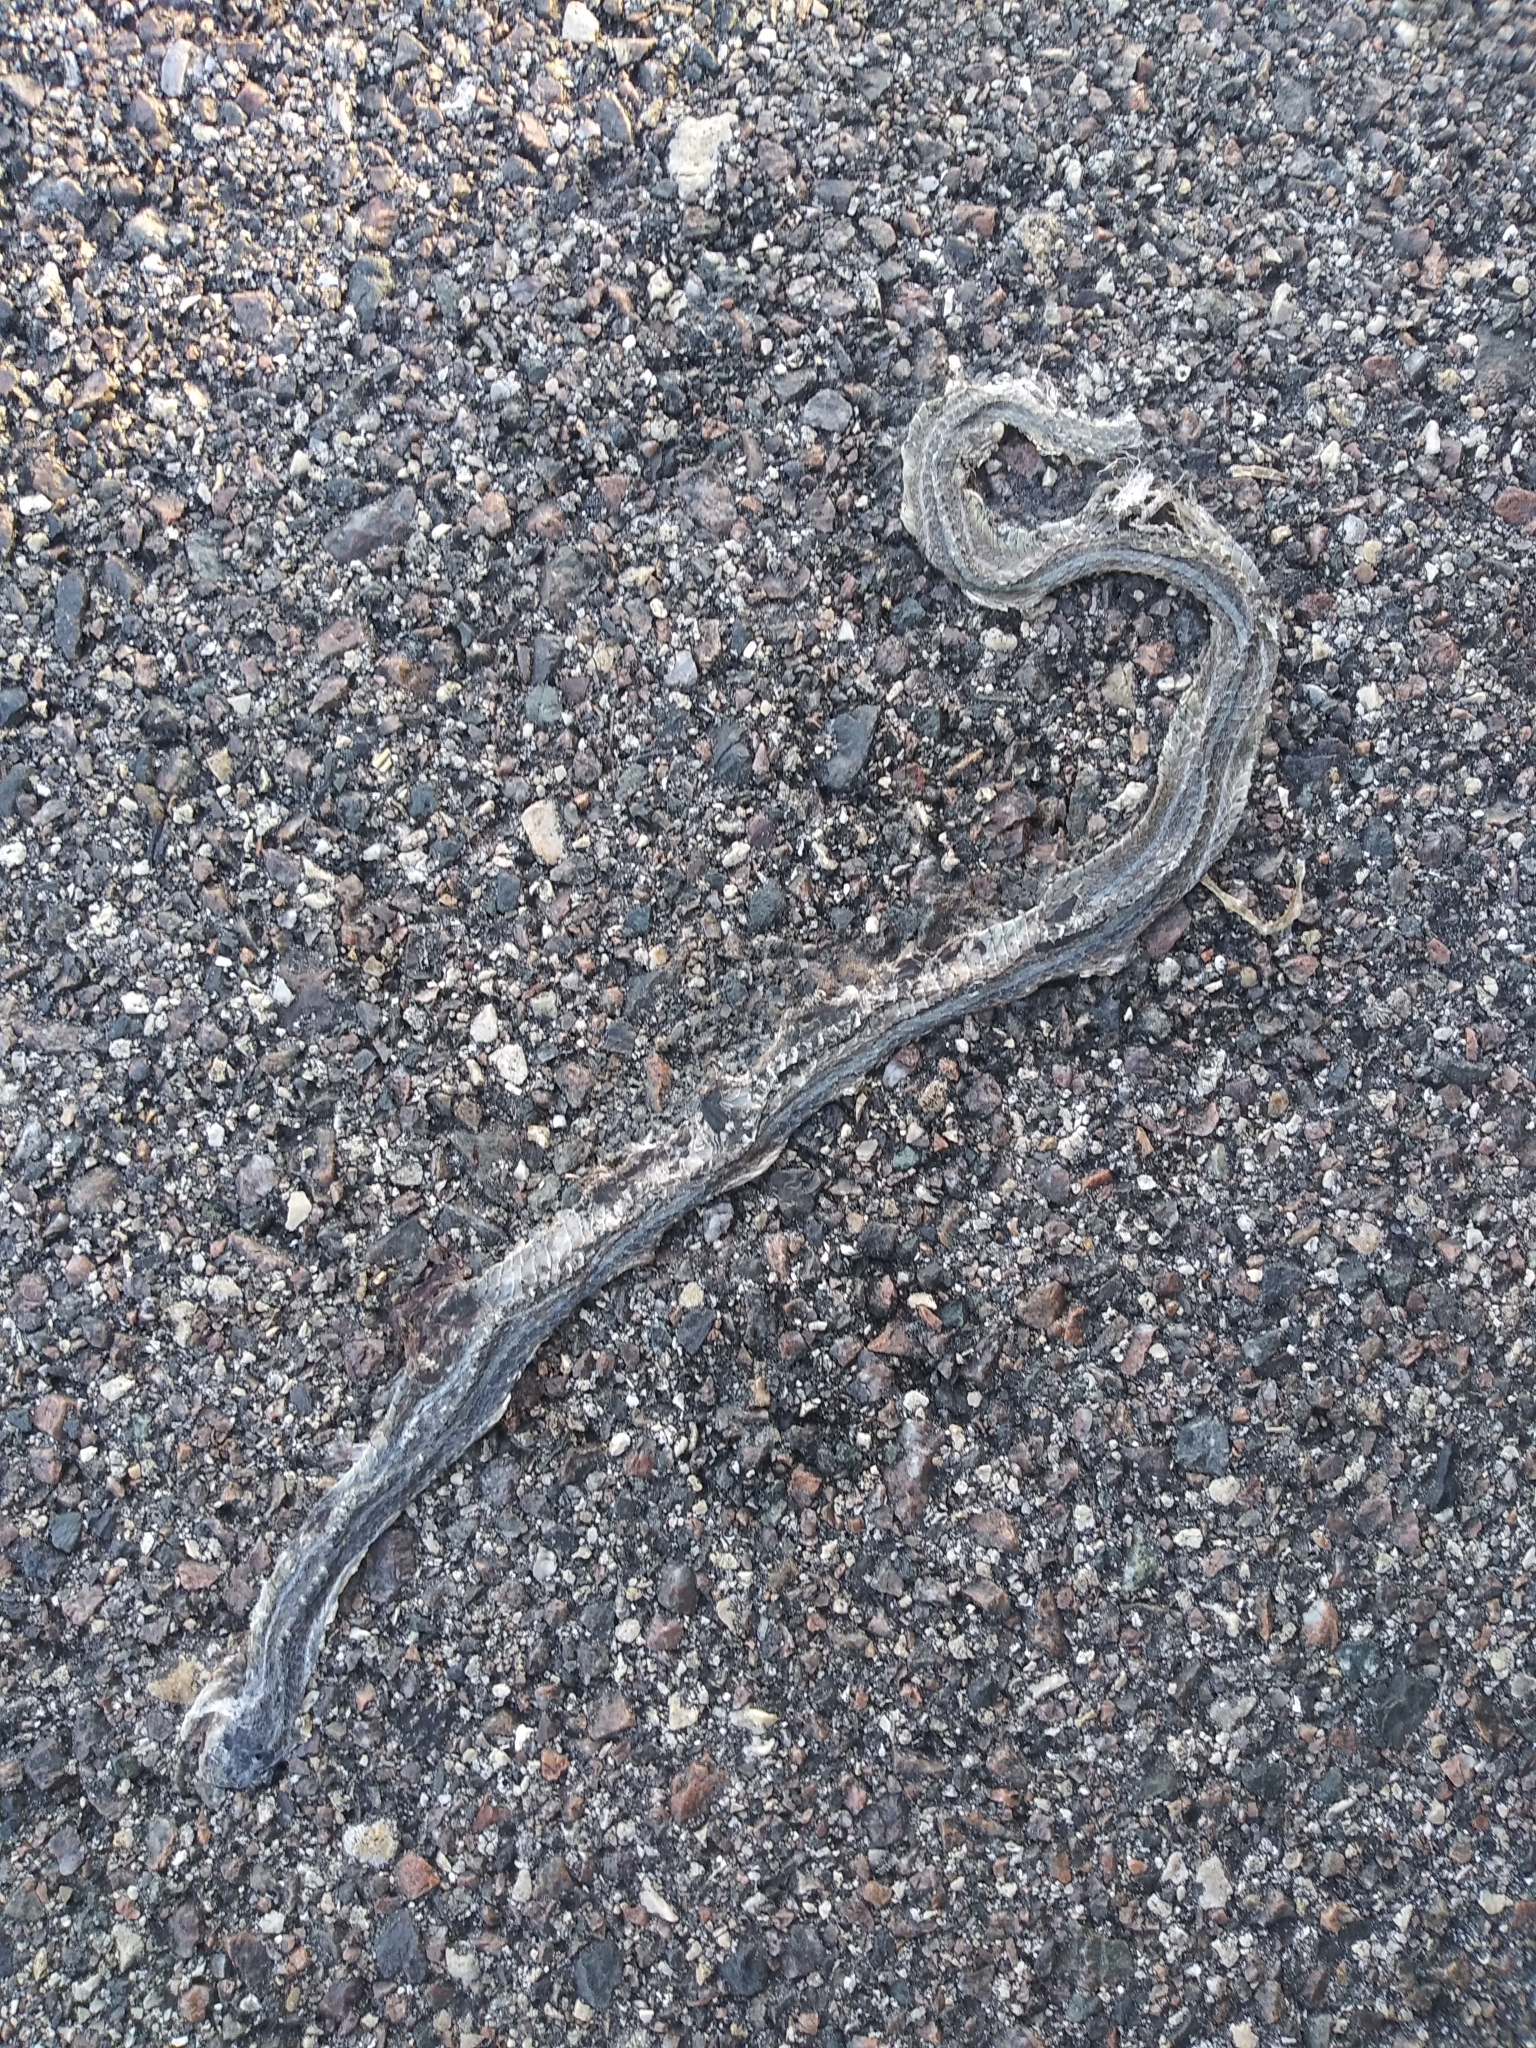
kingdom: Animalia
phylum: Chordata
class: Squamata
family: Colubridae
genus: Thamnophis
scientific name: Thamnophis saurita
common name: Eastern ribbonsnake
